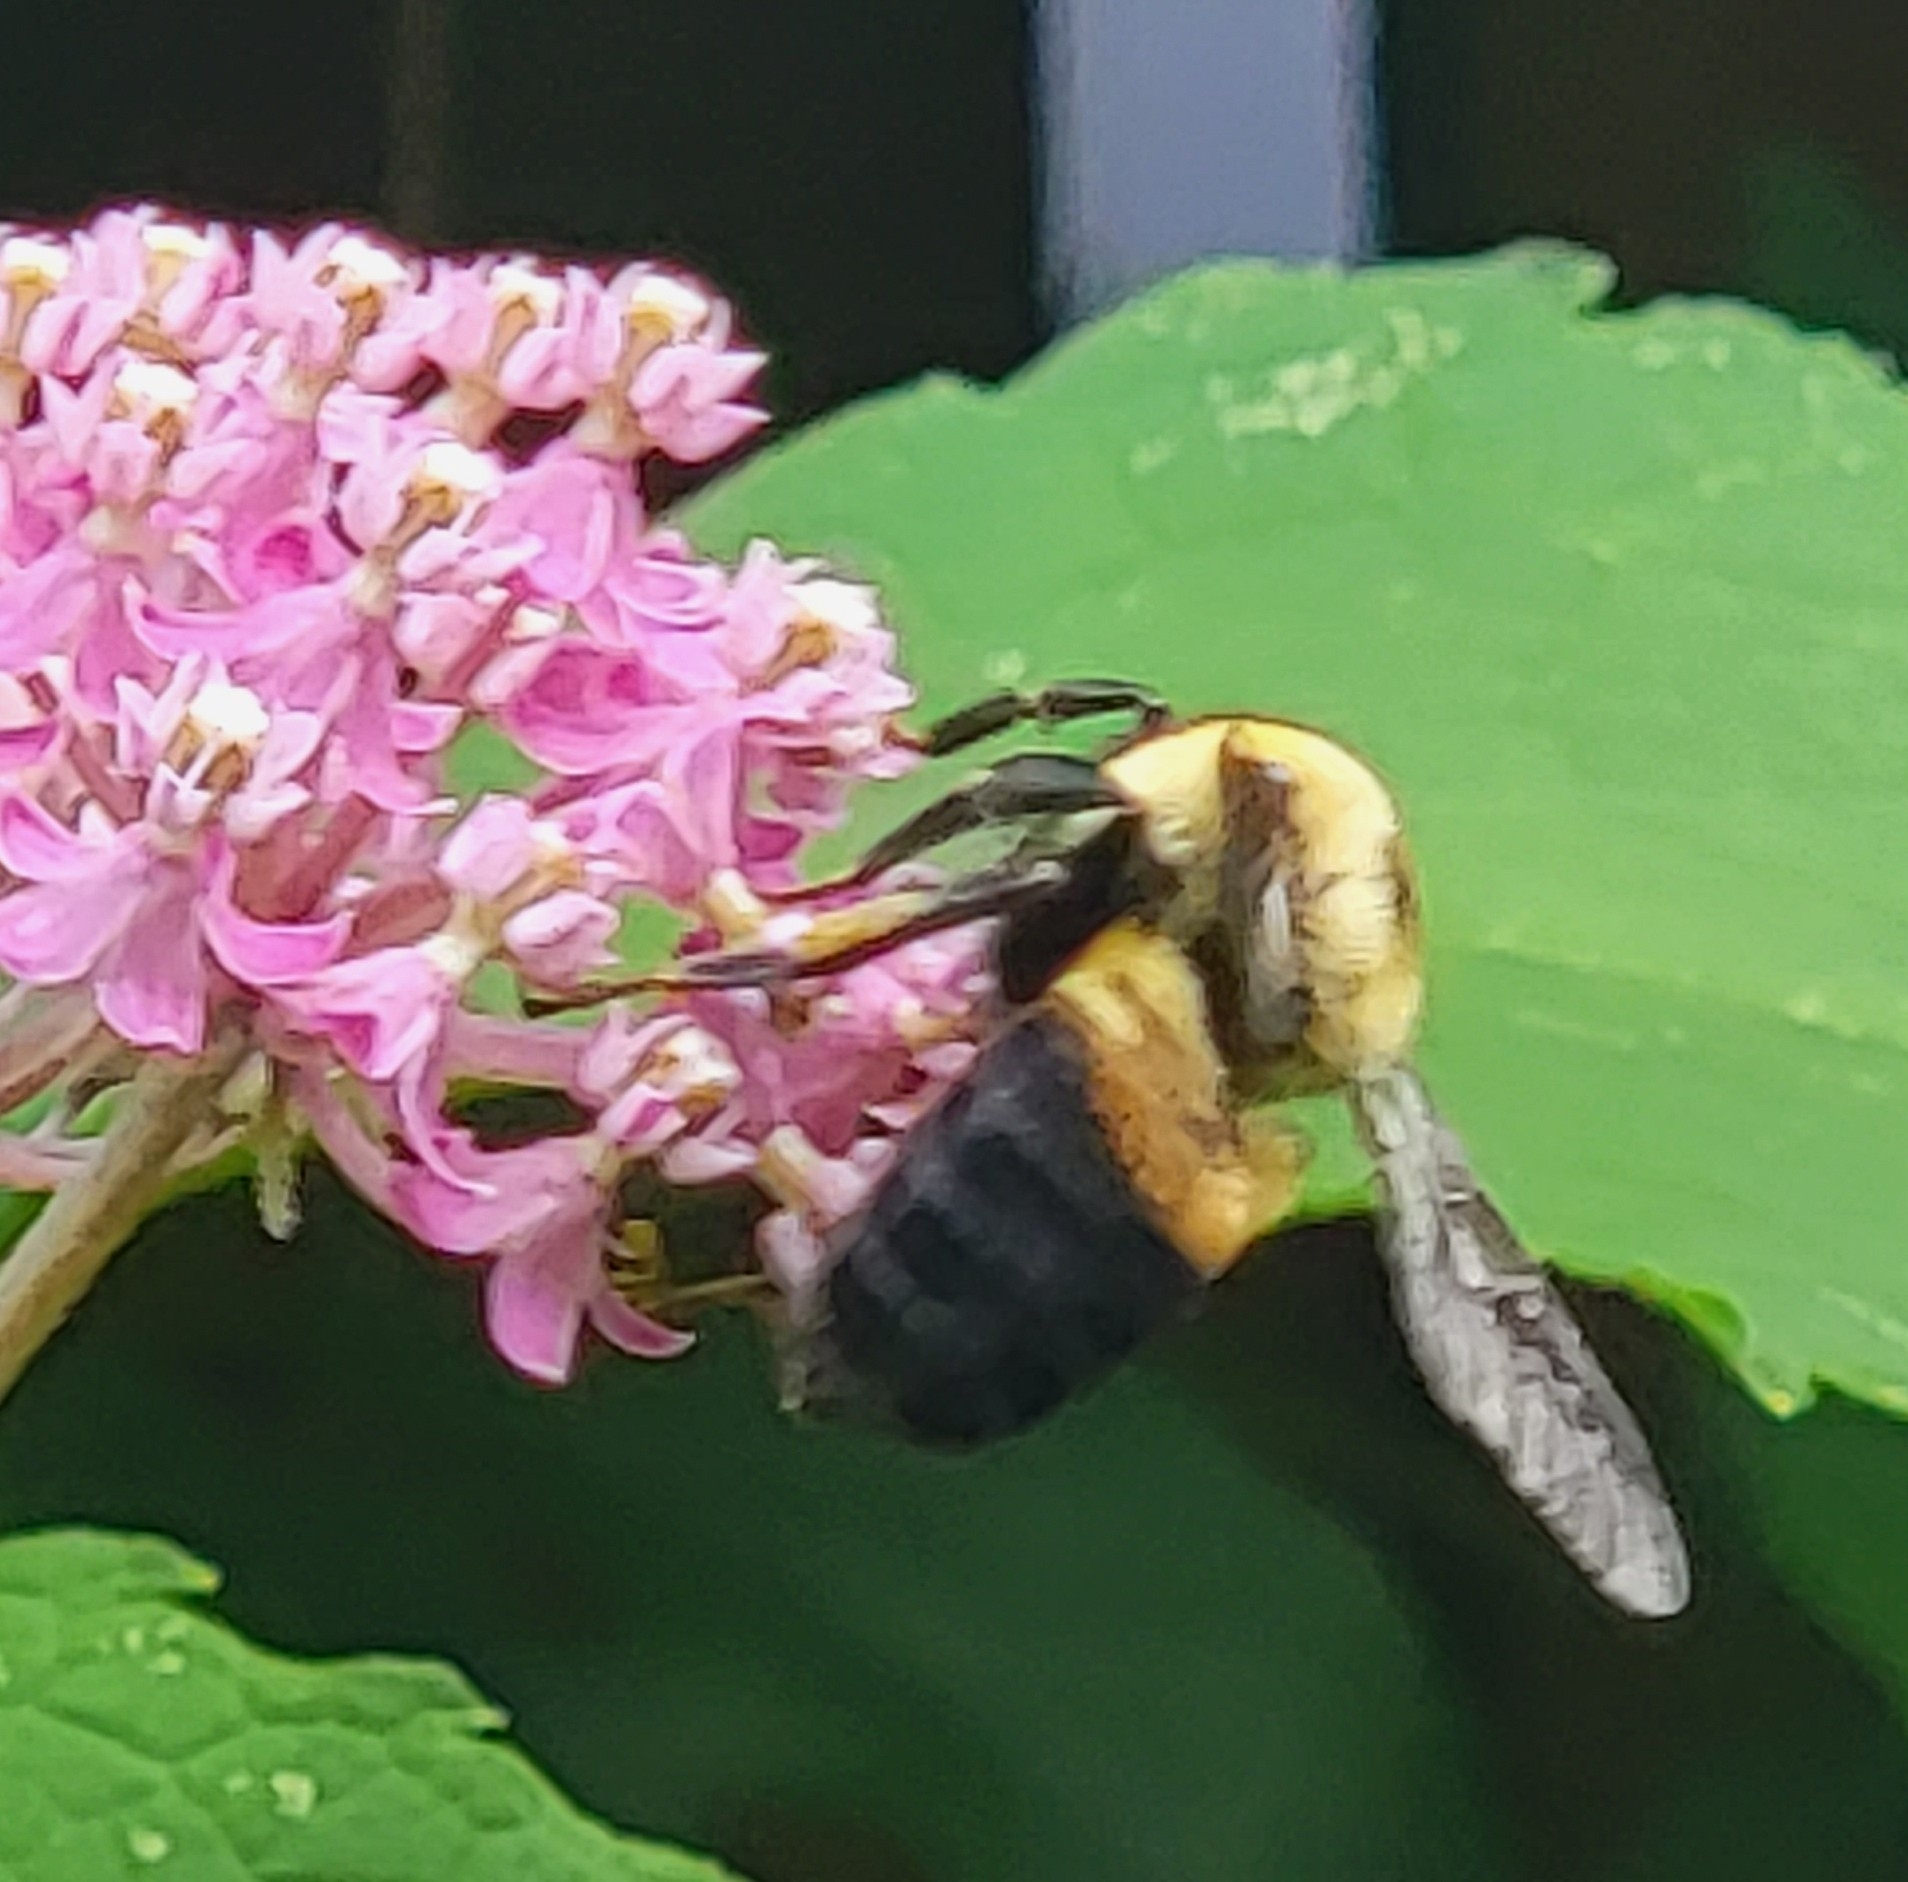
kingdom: Animalia
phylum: Arthropoda
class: Insecta
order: Hymenoptera
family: Apidae
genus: Bombus
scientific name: Bombus griseocollis
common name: Brown-belted bumble bee
